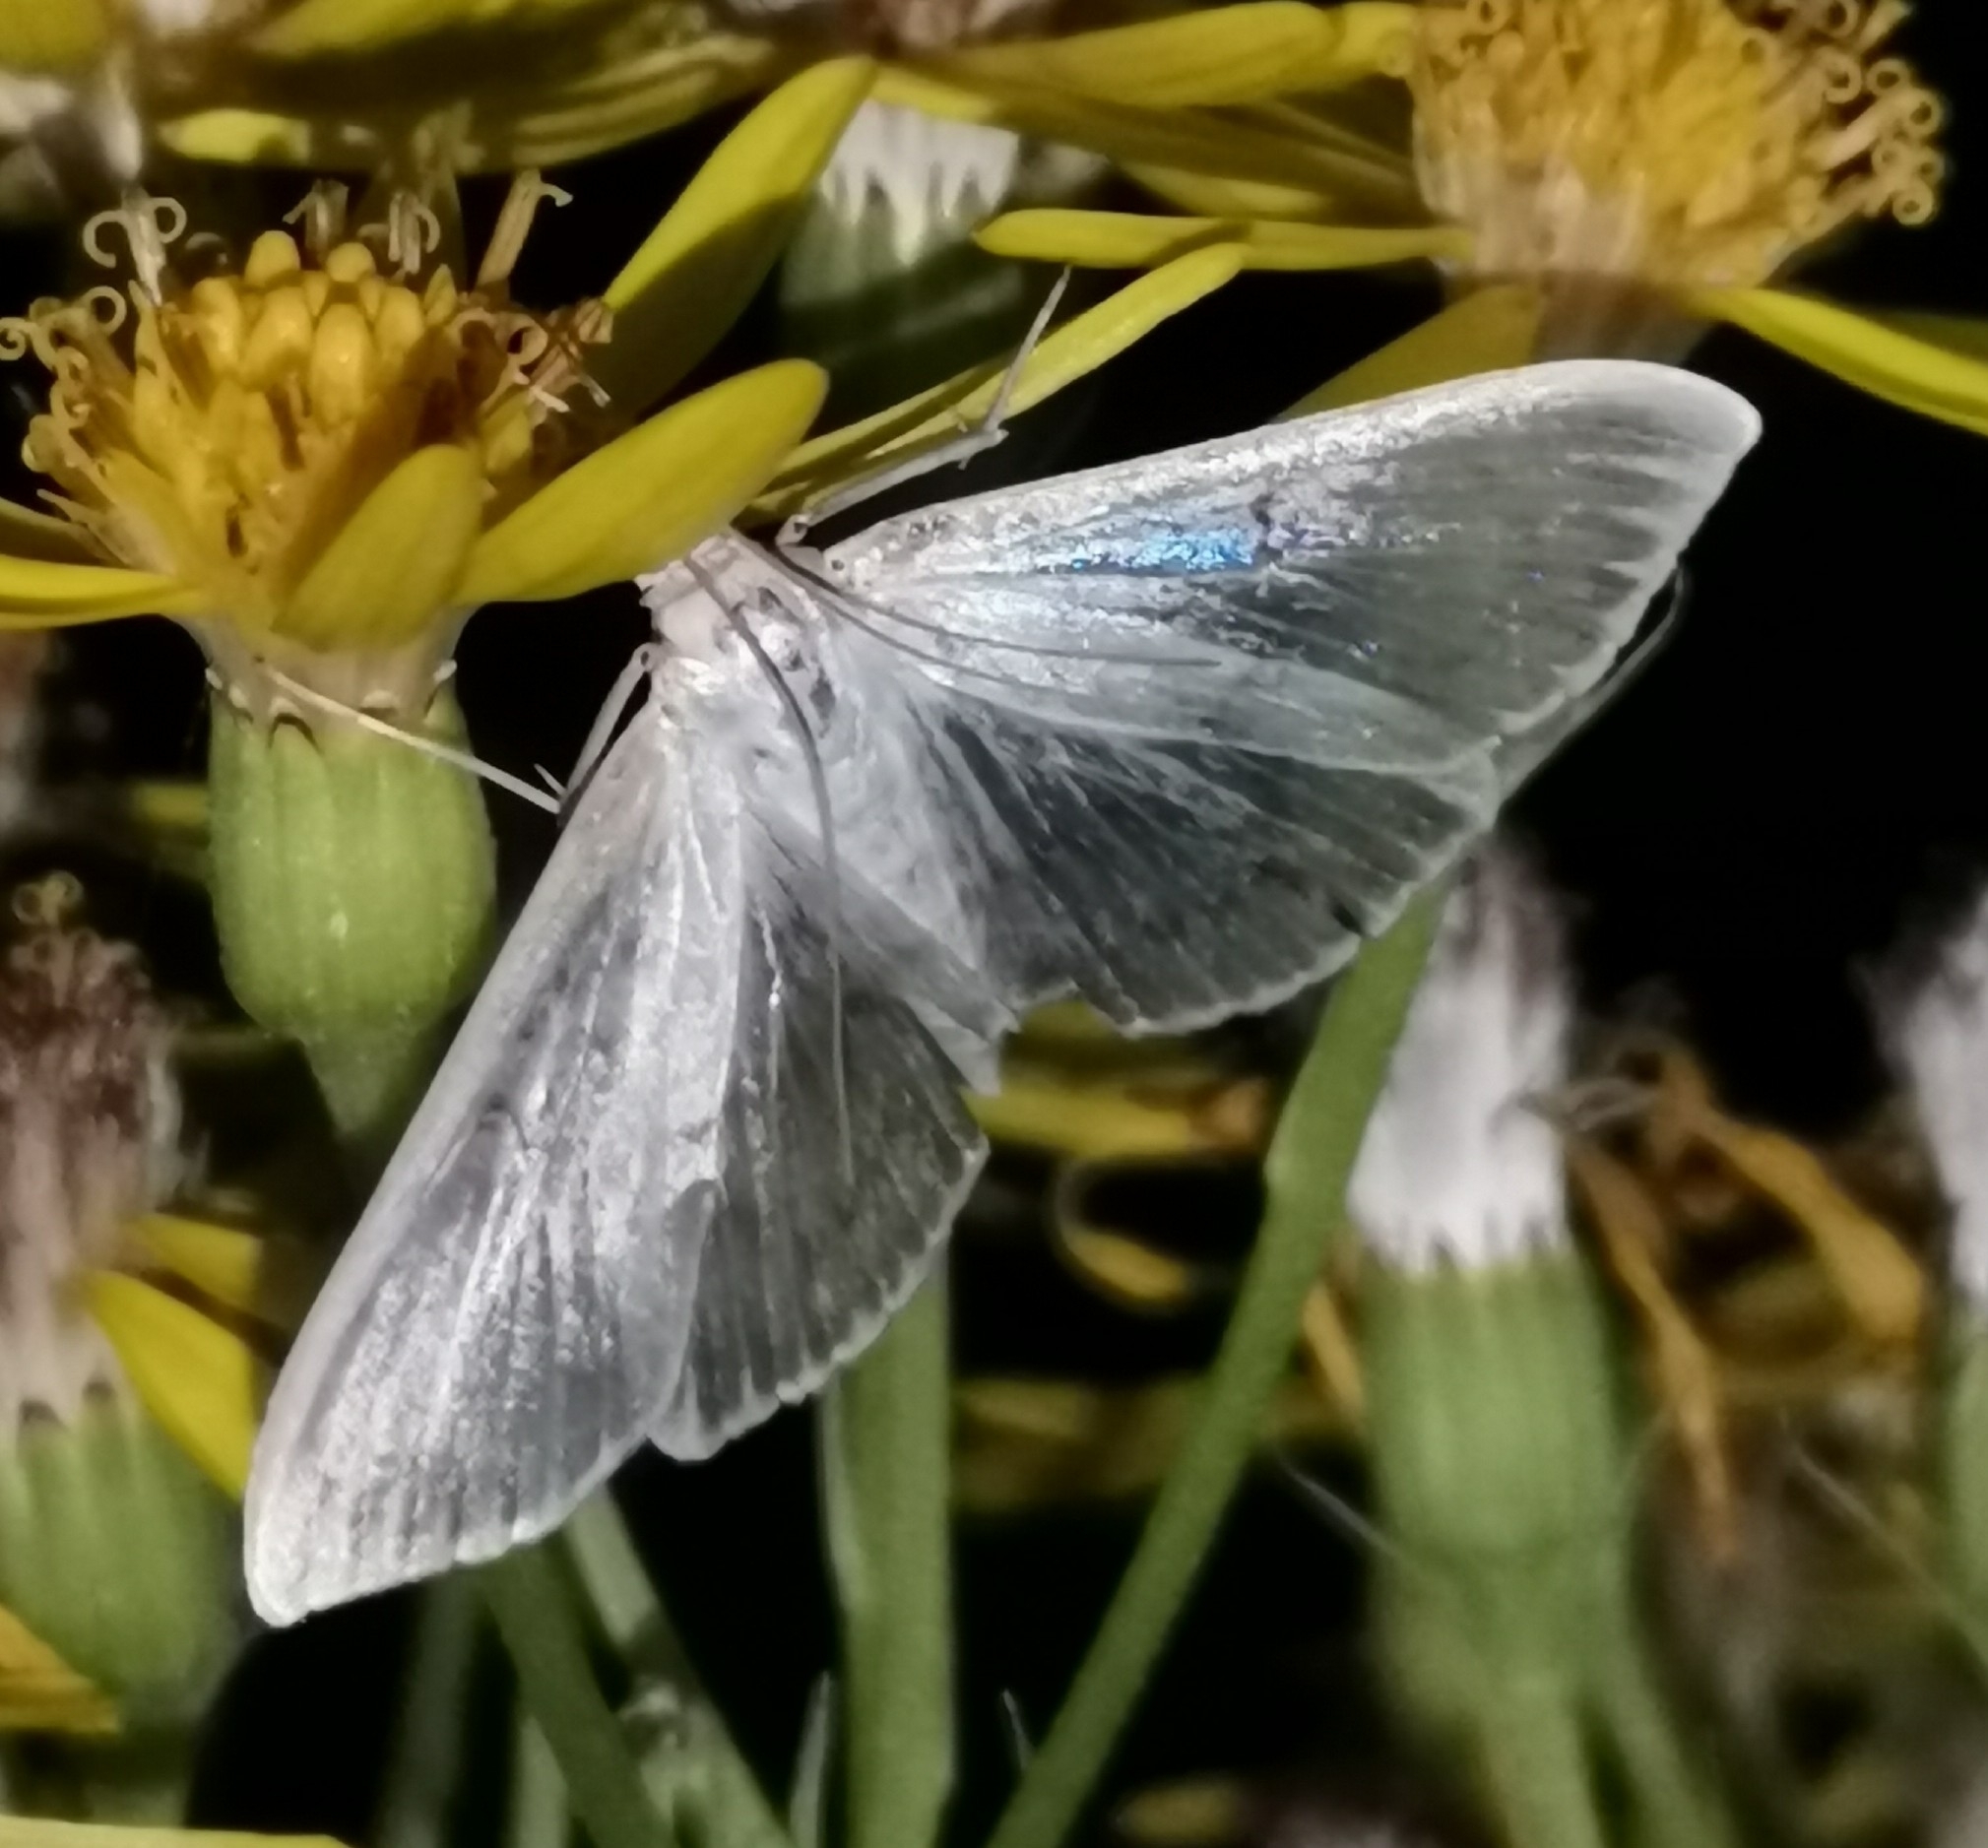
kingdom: Animalia
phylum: Arthropoda
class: Insecta
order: Lepidoptera
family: Crambidae
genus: Patania
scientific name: Patania ruralis
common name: Mother of pearl
